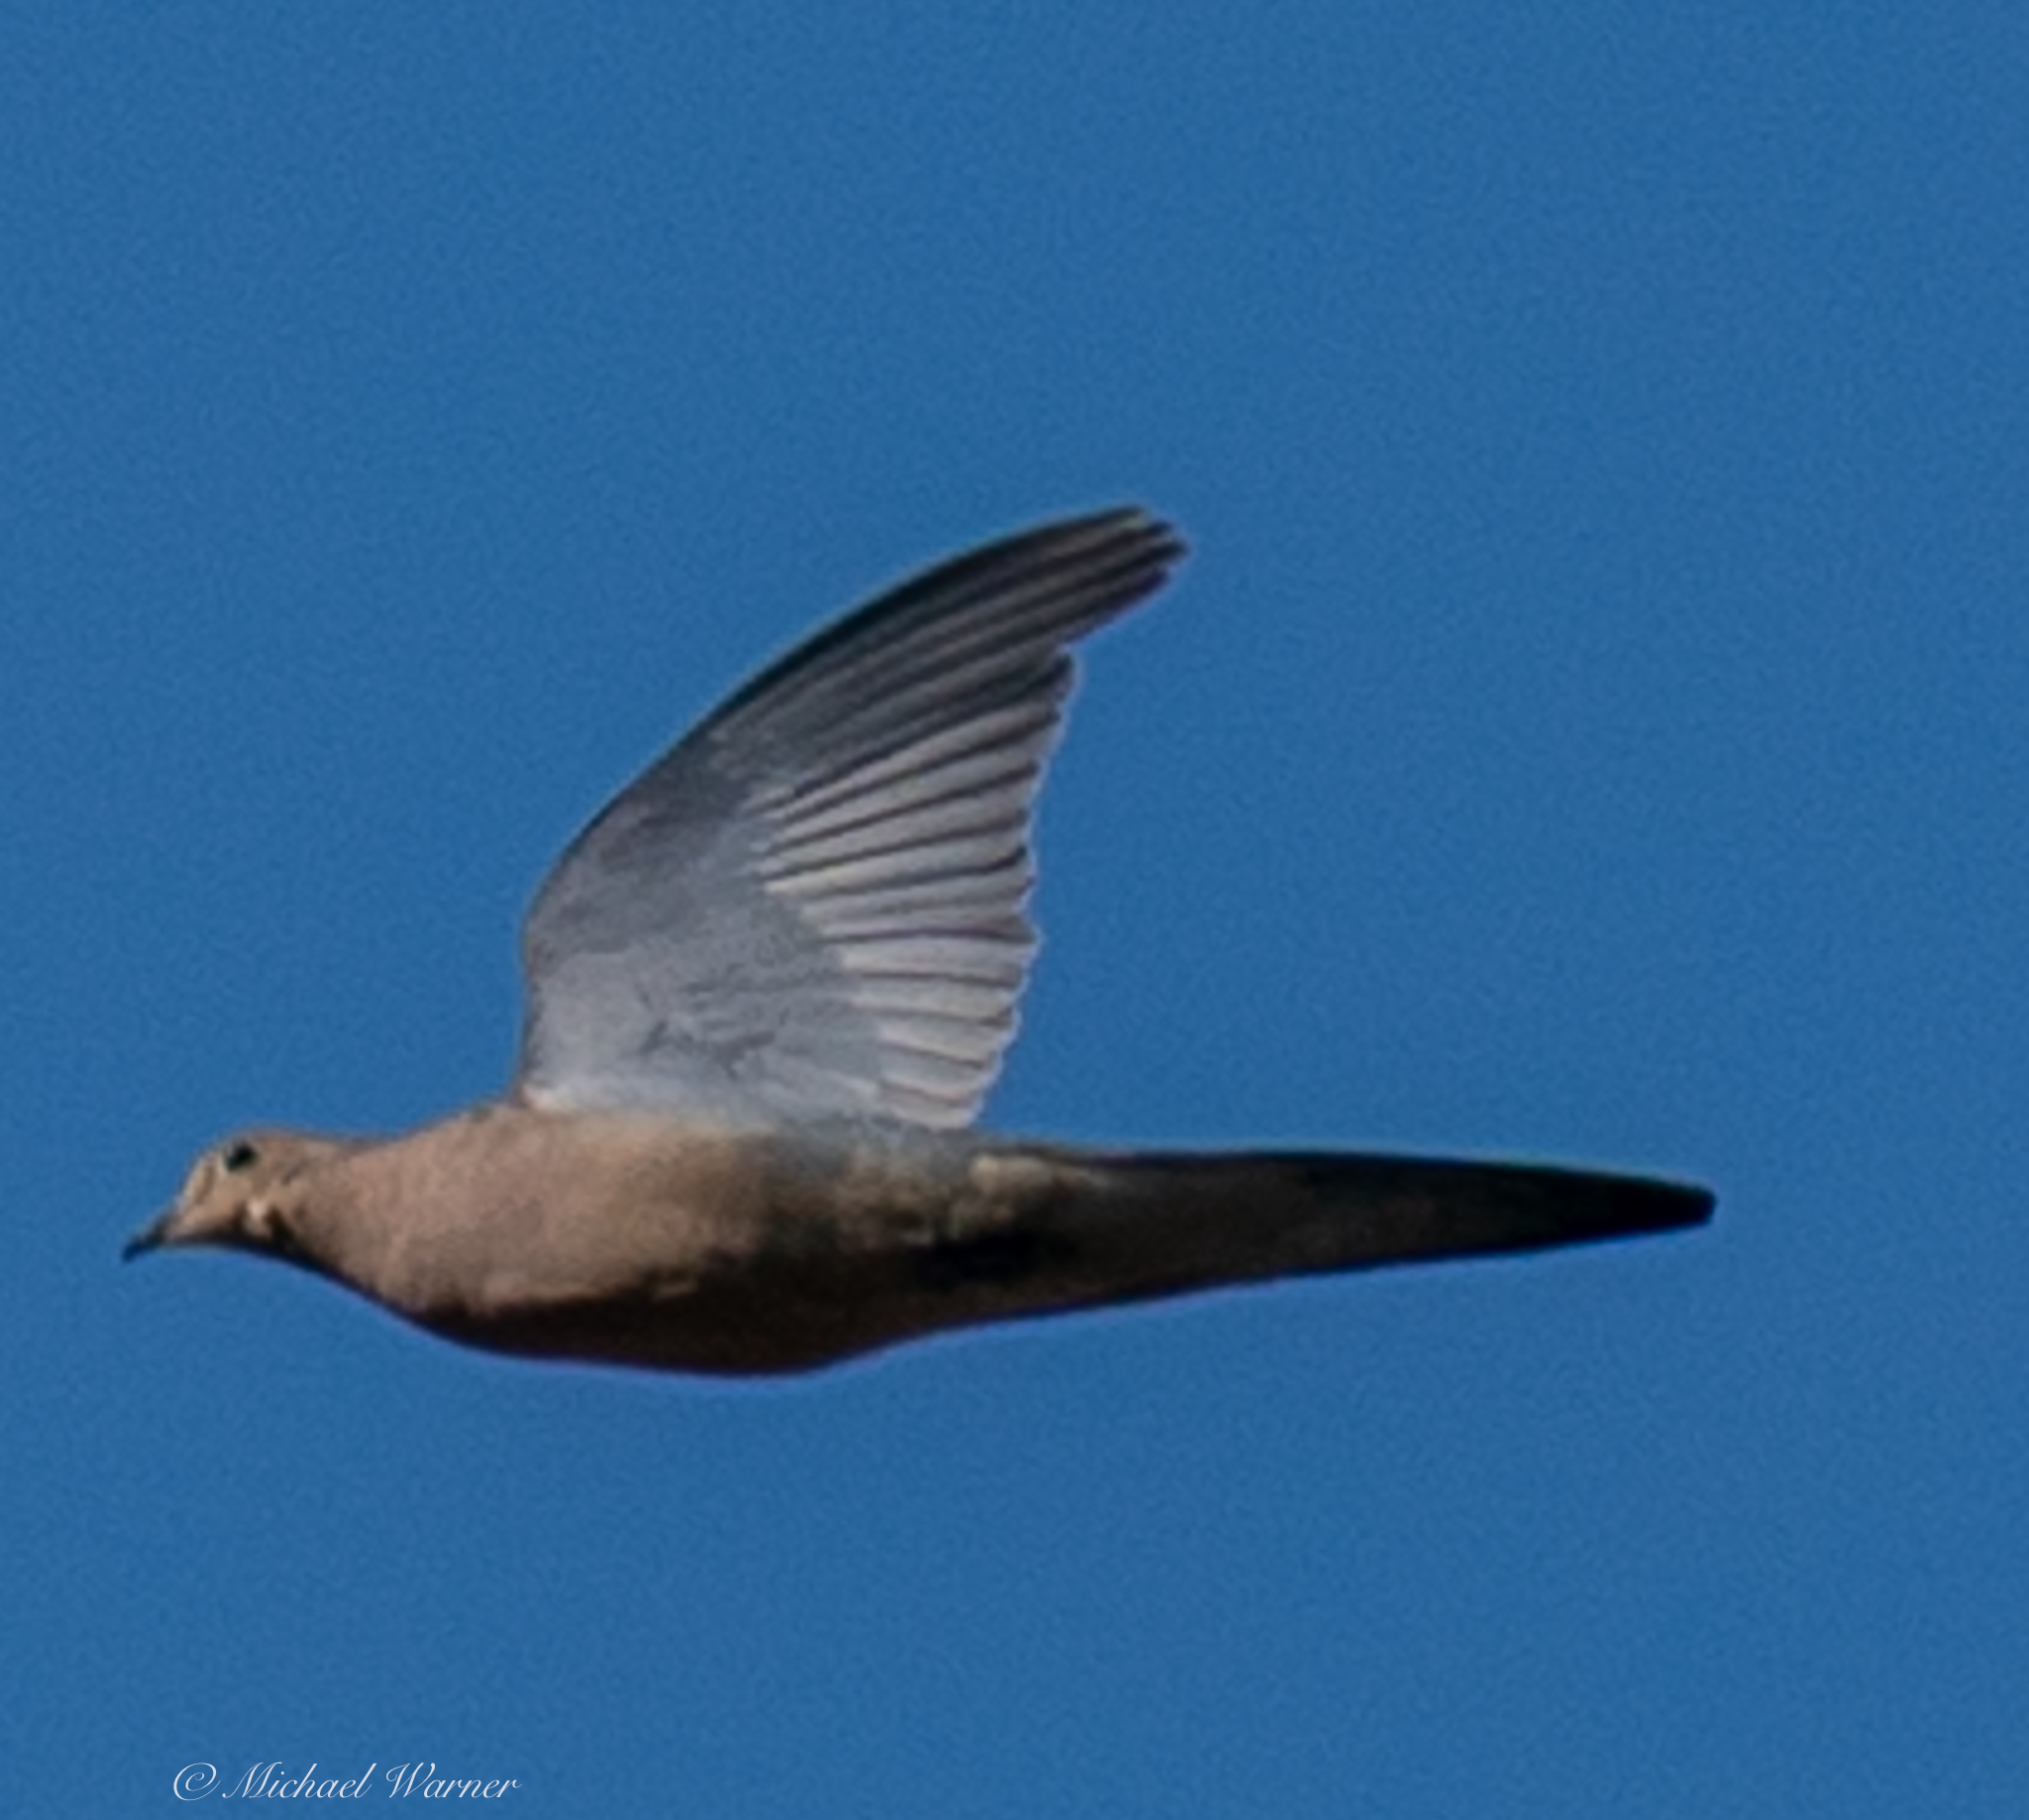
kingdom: Animalia
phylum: Chordata
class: Aves
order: Columbiformes
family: Columbidae
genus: Zenaida
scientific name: Zenaida macroura
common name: Mourning dove
